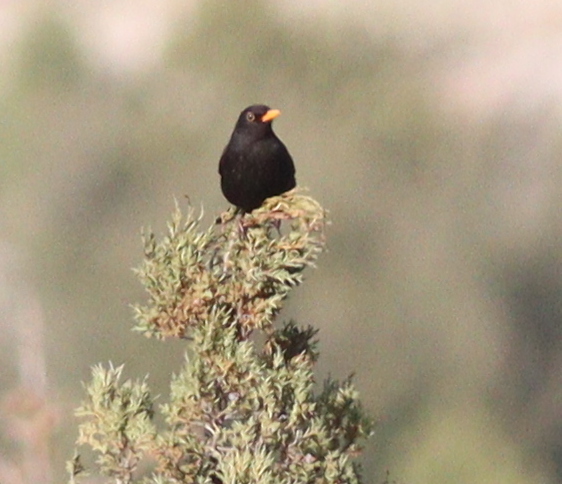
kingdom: Animalia
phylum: Chordata
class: Aves
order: Passeriformes
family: Turdidae
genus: Turdus
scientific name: Turdus merula
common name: Common blackbird
